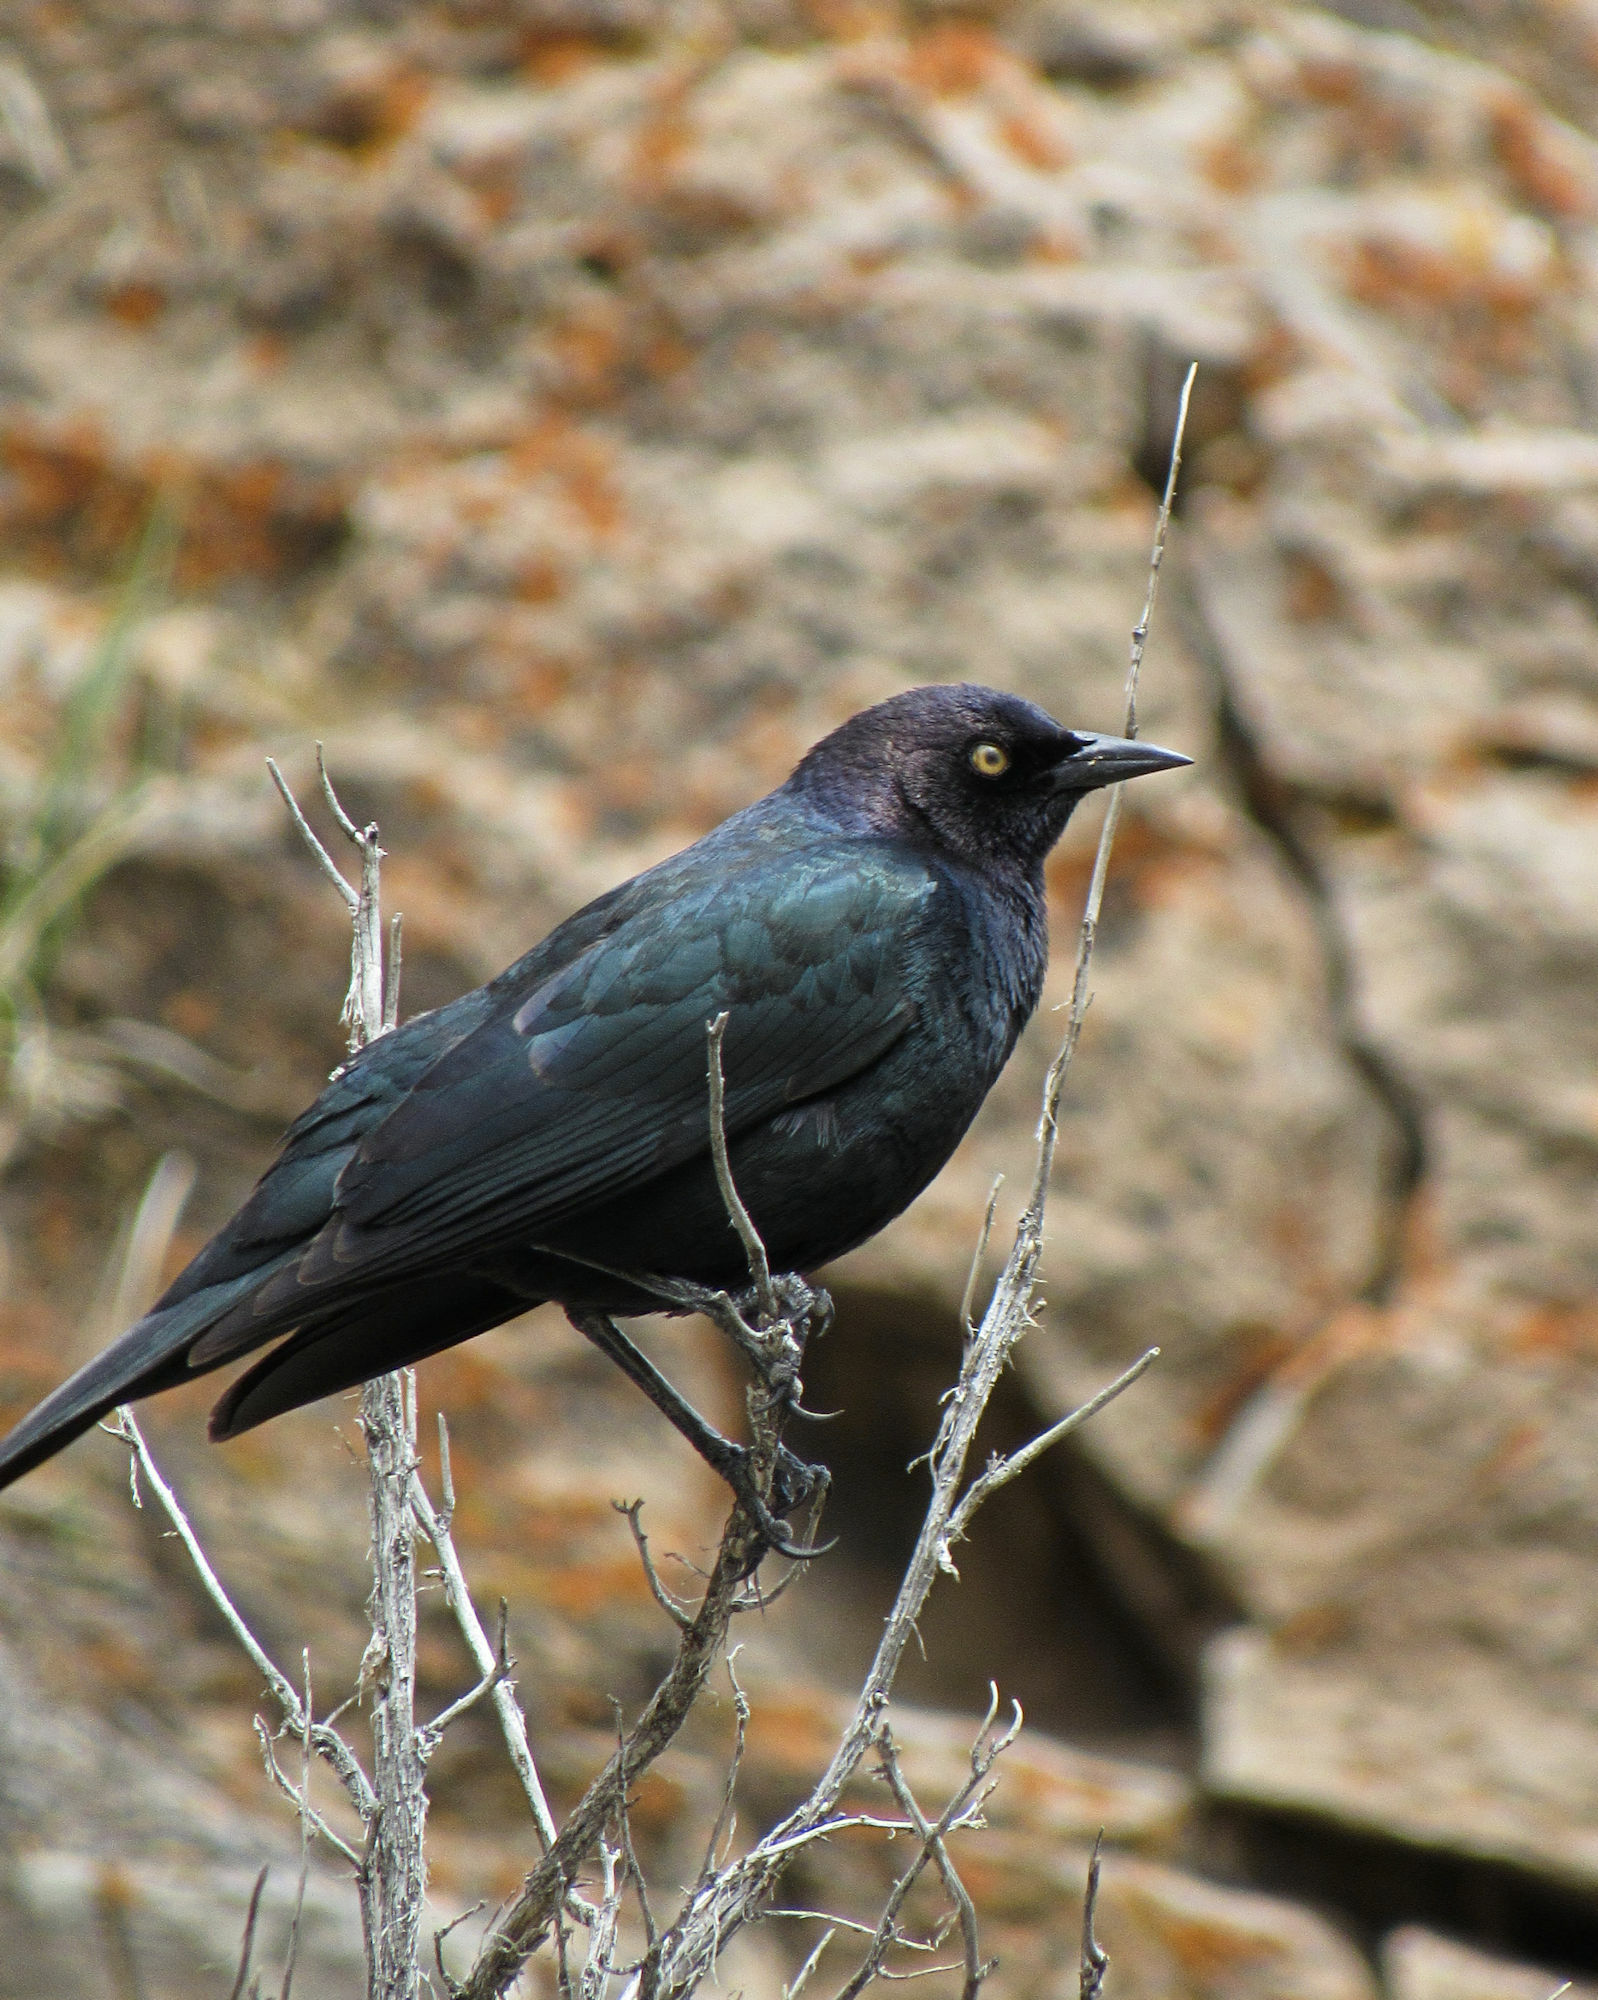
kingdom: Animalia
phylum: Chordata
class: Aves
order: Passeriformes
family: Icteridae
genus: Euphagus
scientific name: Euphagus cyanocephalus
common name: Brewer's blackbird
